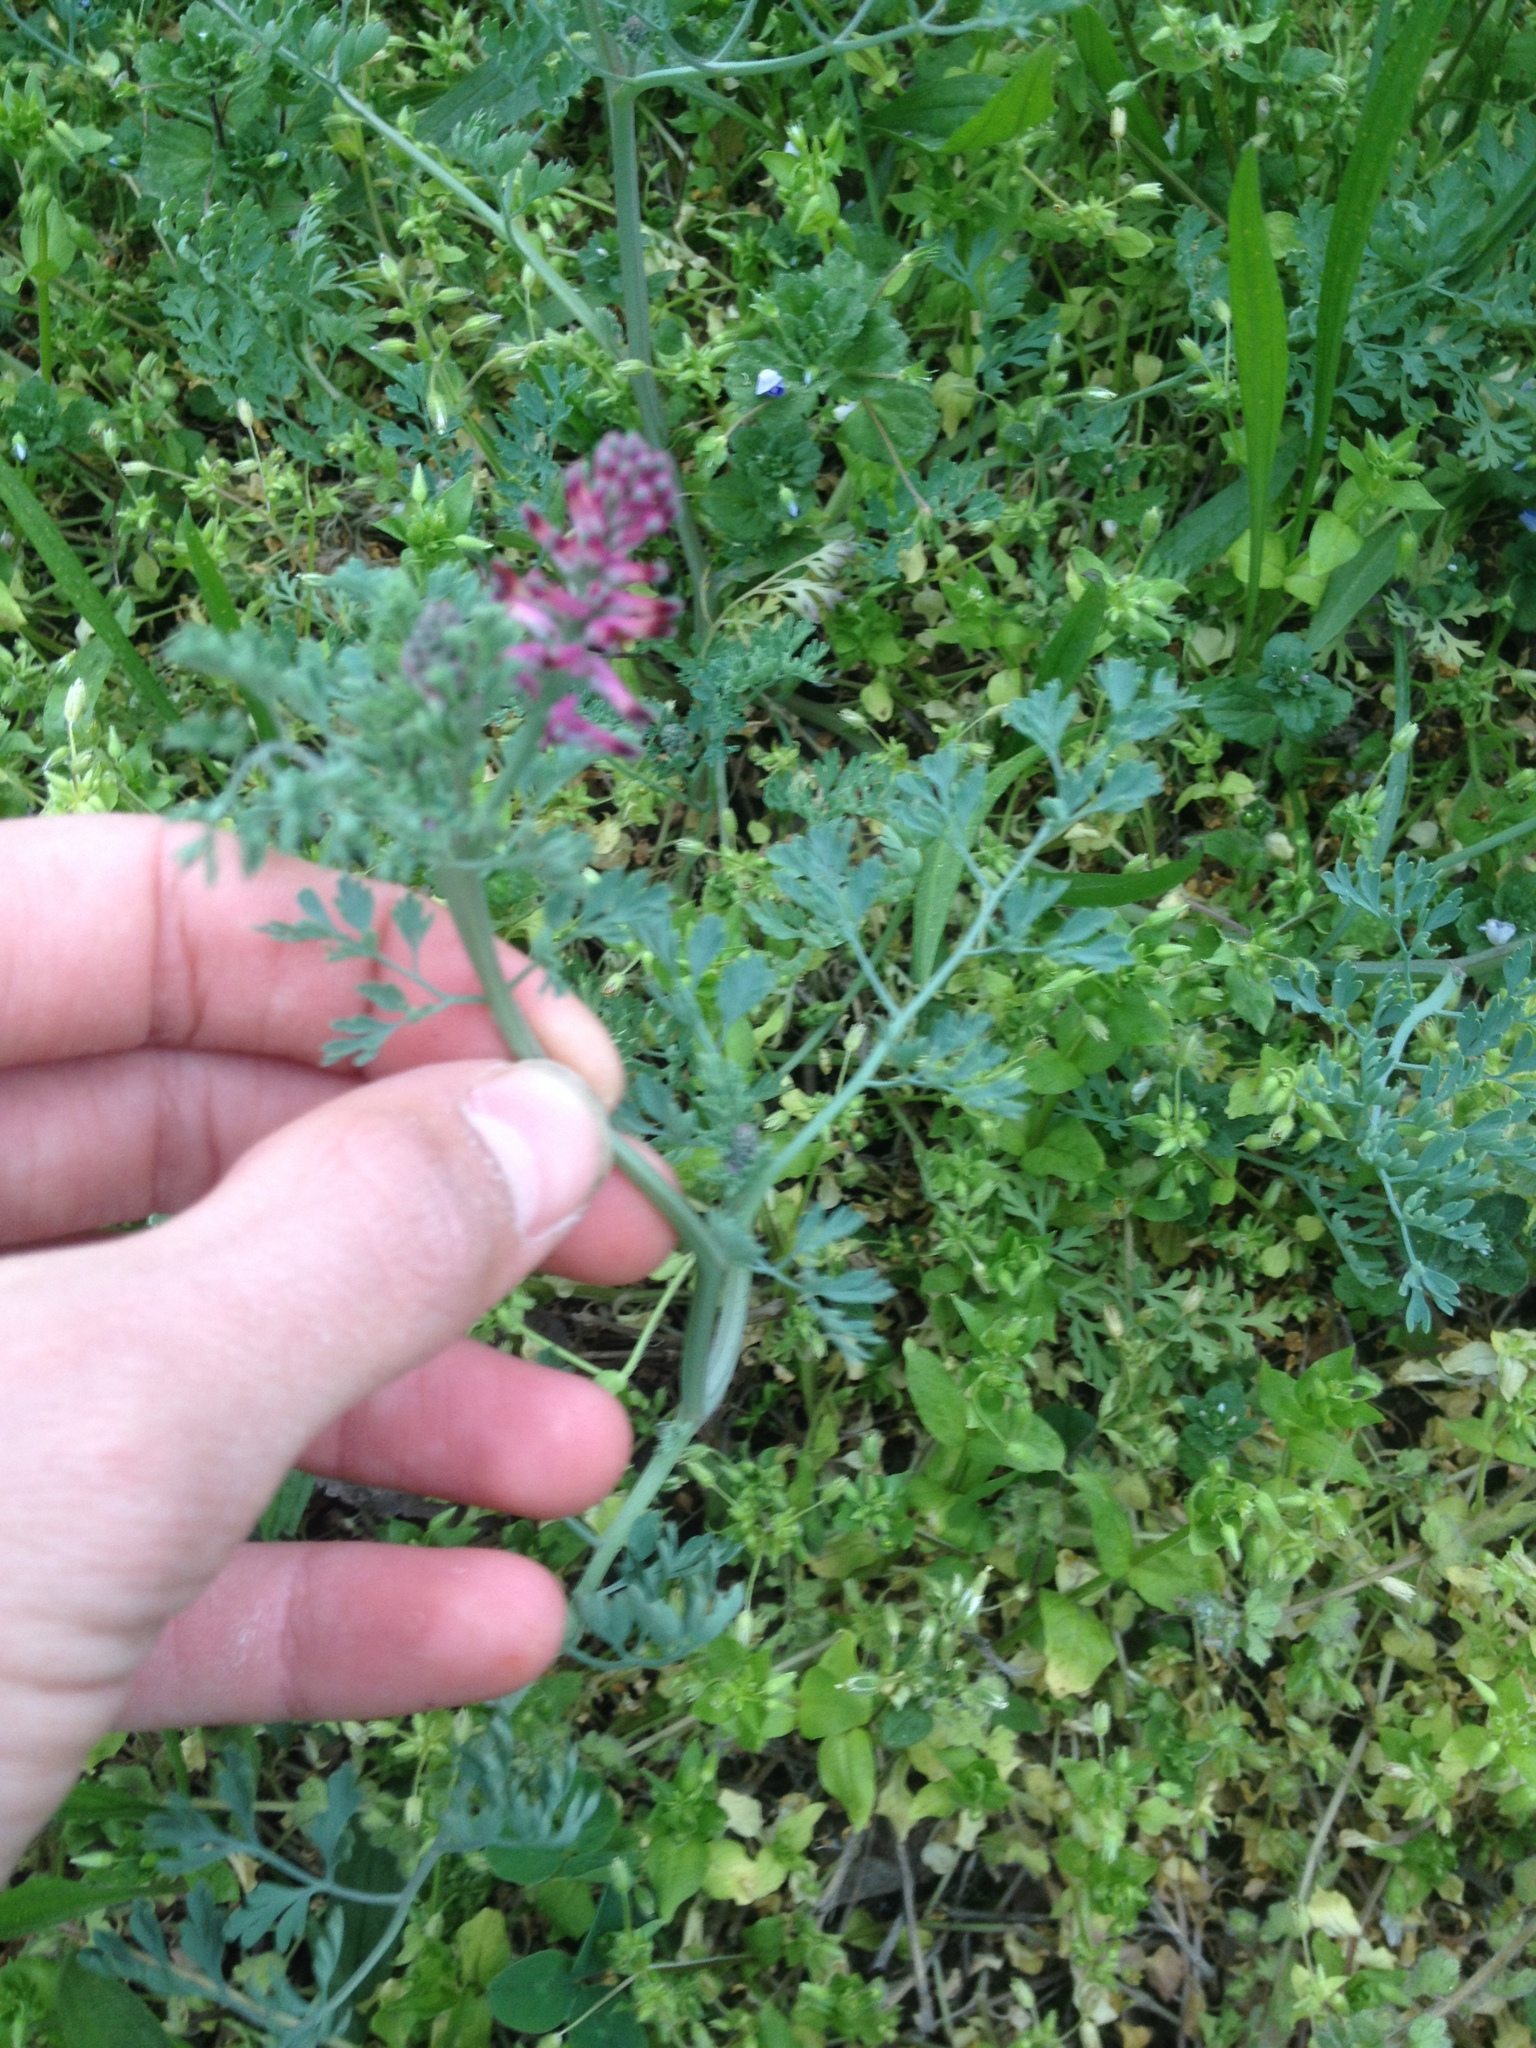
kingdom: Plantae
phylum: Tracheophyta
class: Magnoliopsida
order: Ranunculales
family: Papaveraceae
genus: Fumaria
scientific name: Fumaria officinalis
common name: Common fumitory
